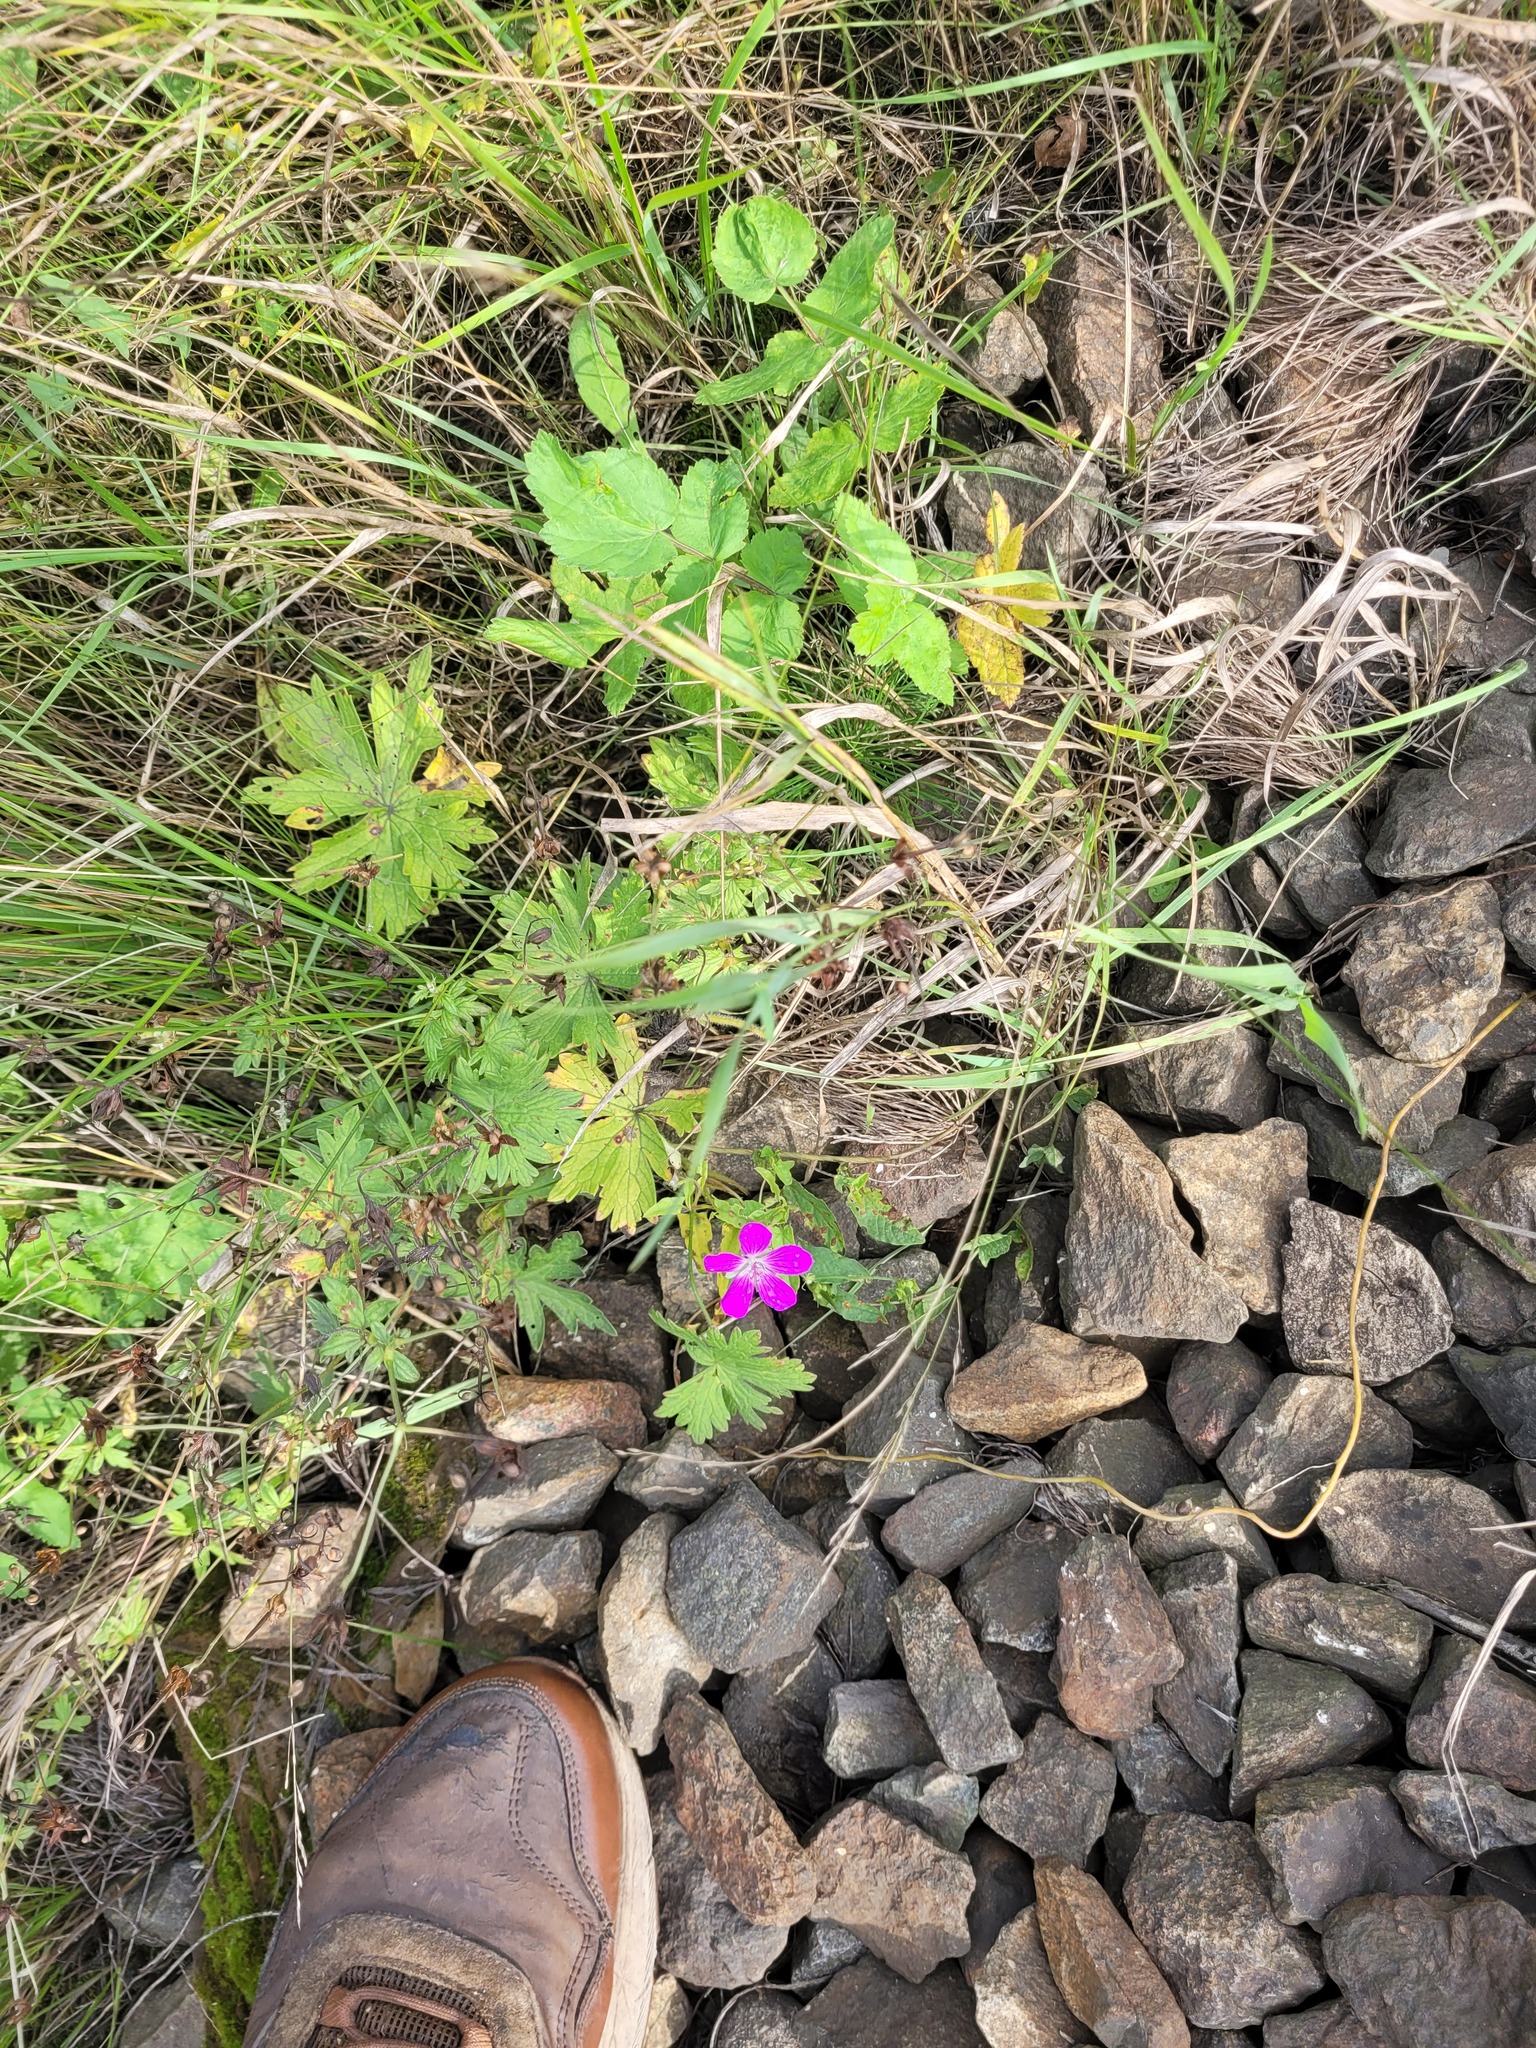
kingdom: Plantae
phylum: Tracheophyta
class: Magnoliopsida
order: Geraniales
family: Geraniaceae
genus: Geranium
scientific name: Geranium palustre
